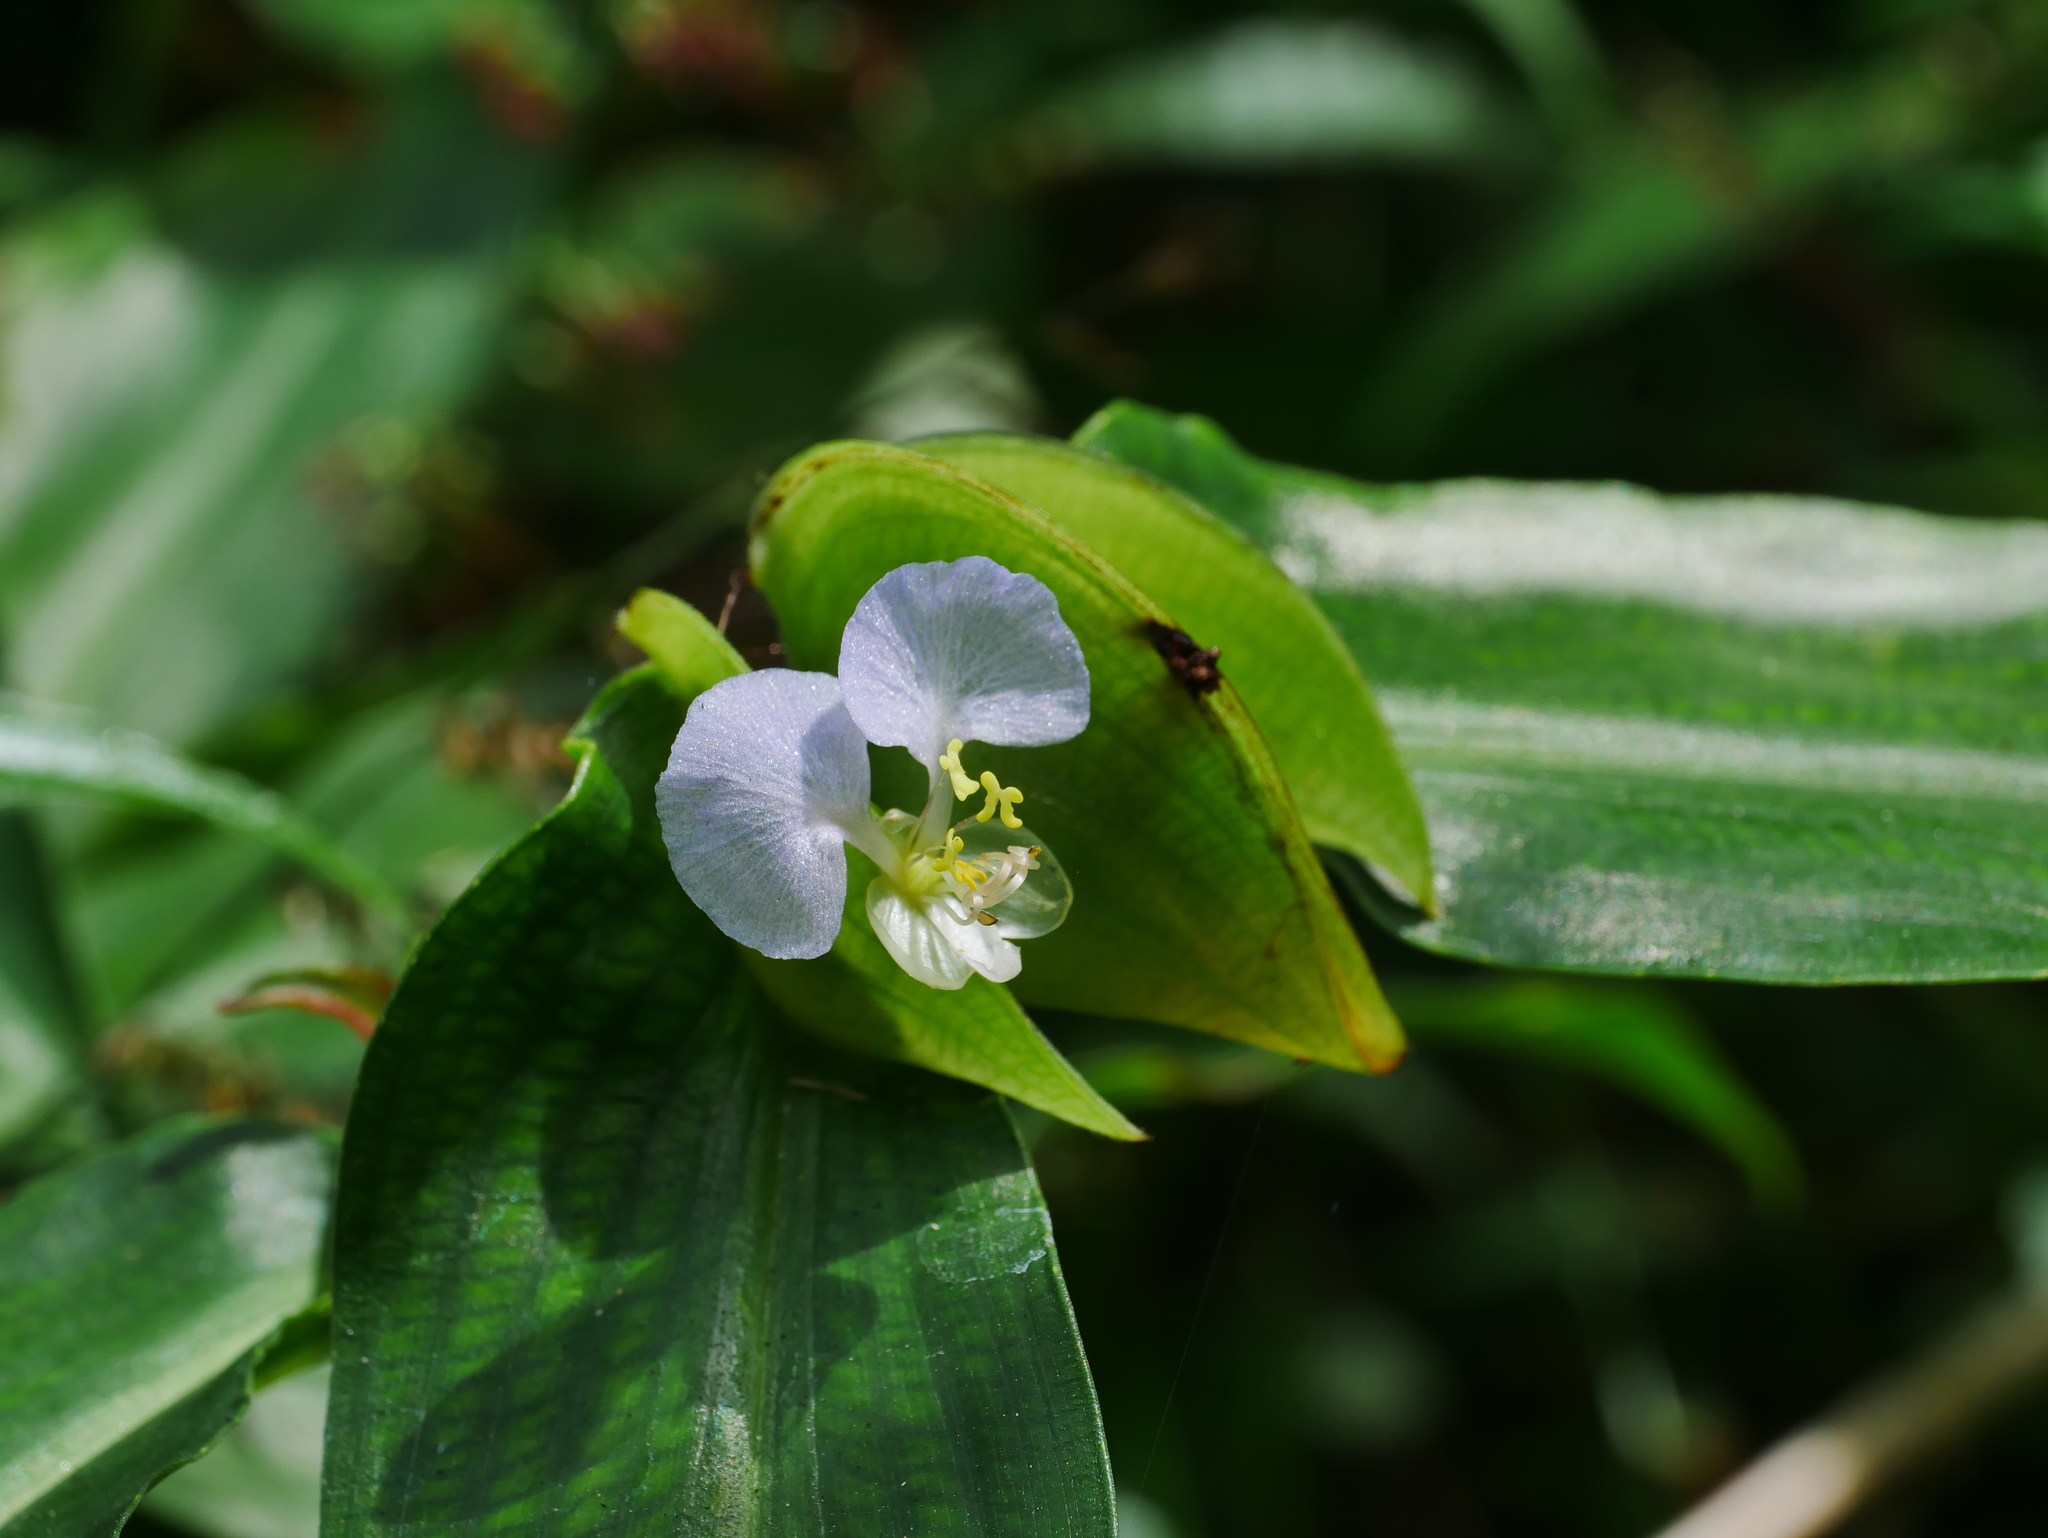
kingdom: Plantae
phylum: Tracheophyta
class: Liliopsida
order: Commelinales
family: Commelinaceae
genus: Commelina
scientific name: Commelina paludosa
